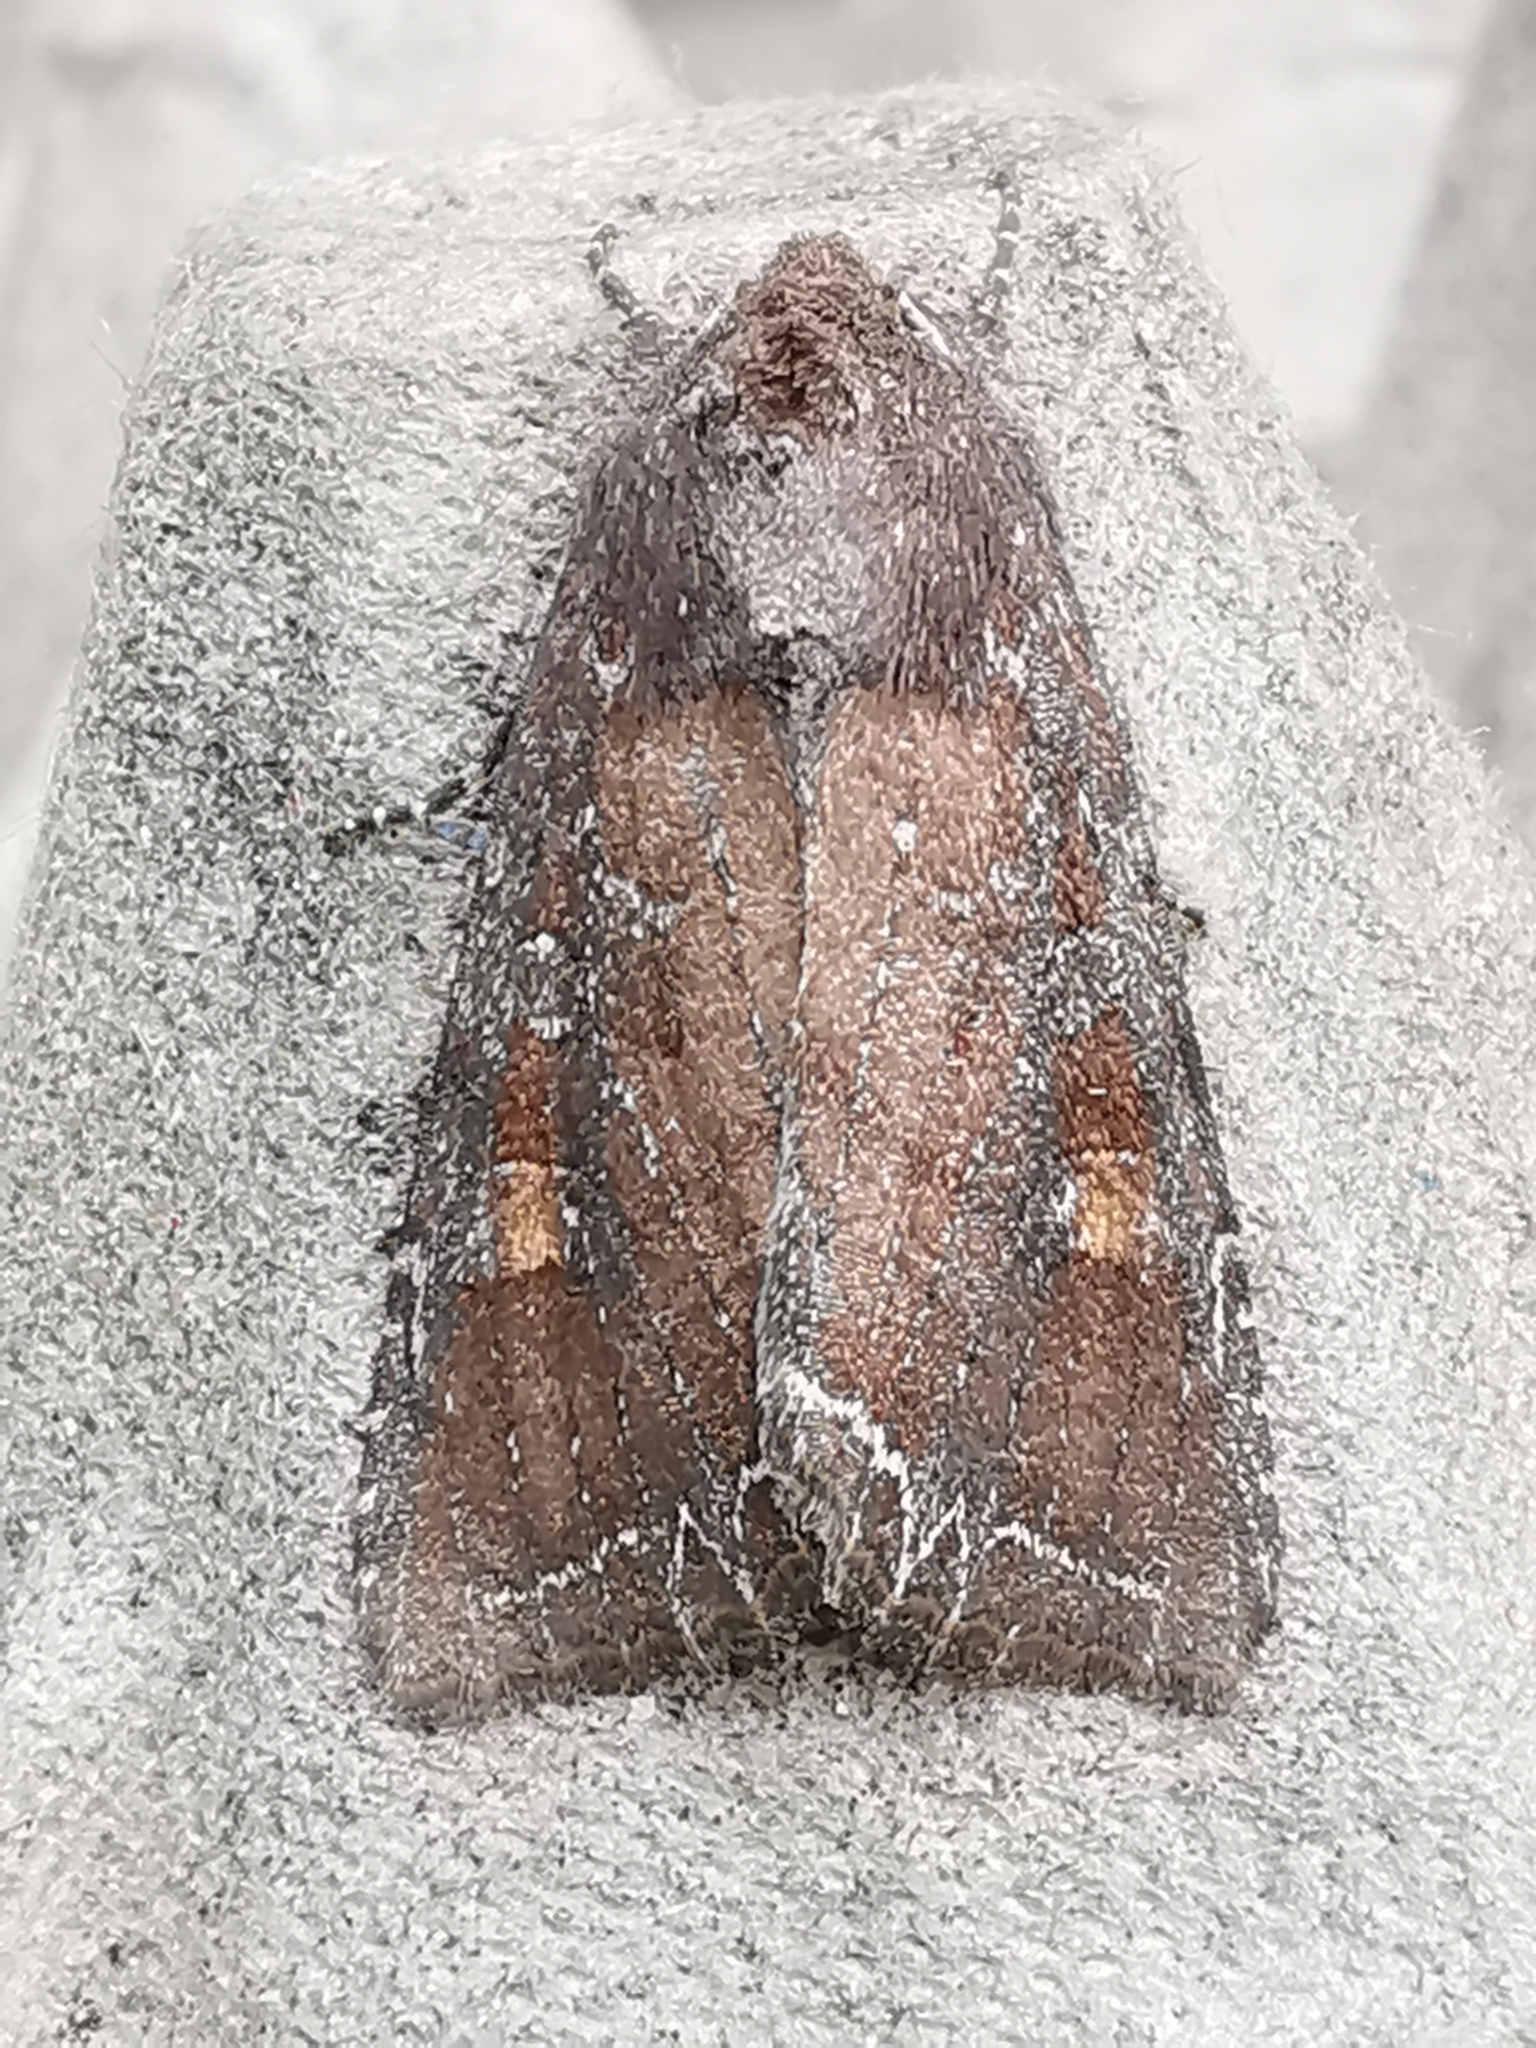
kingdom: Animalia
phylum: Arthropoda
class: Insecta
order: Lepidoptera
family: Noctuidae
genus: Lacanobia
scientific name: Lacanobia oleracea
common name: Bright-line brown-eye
